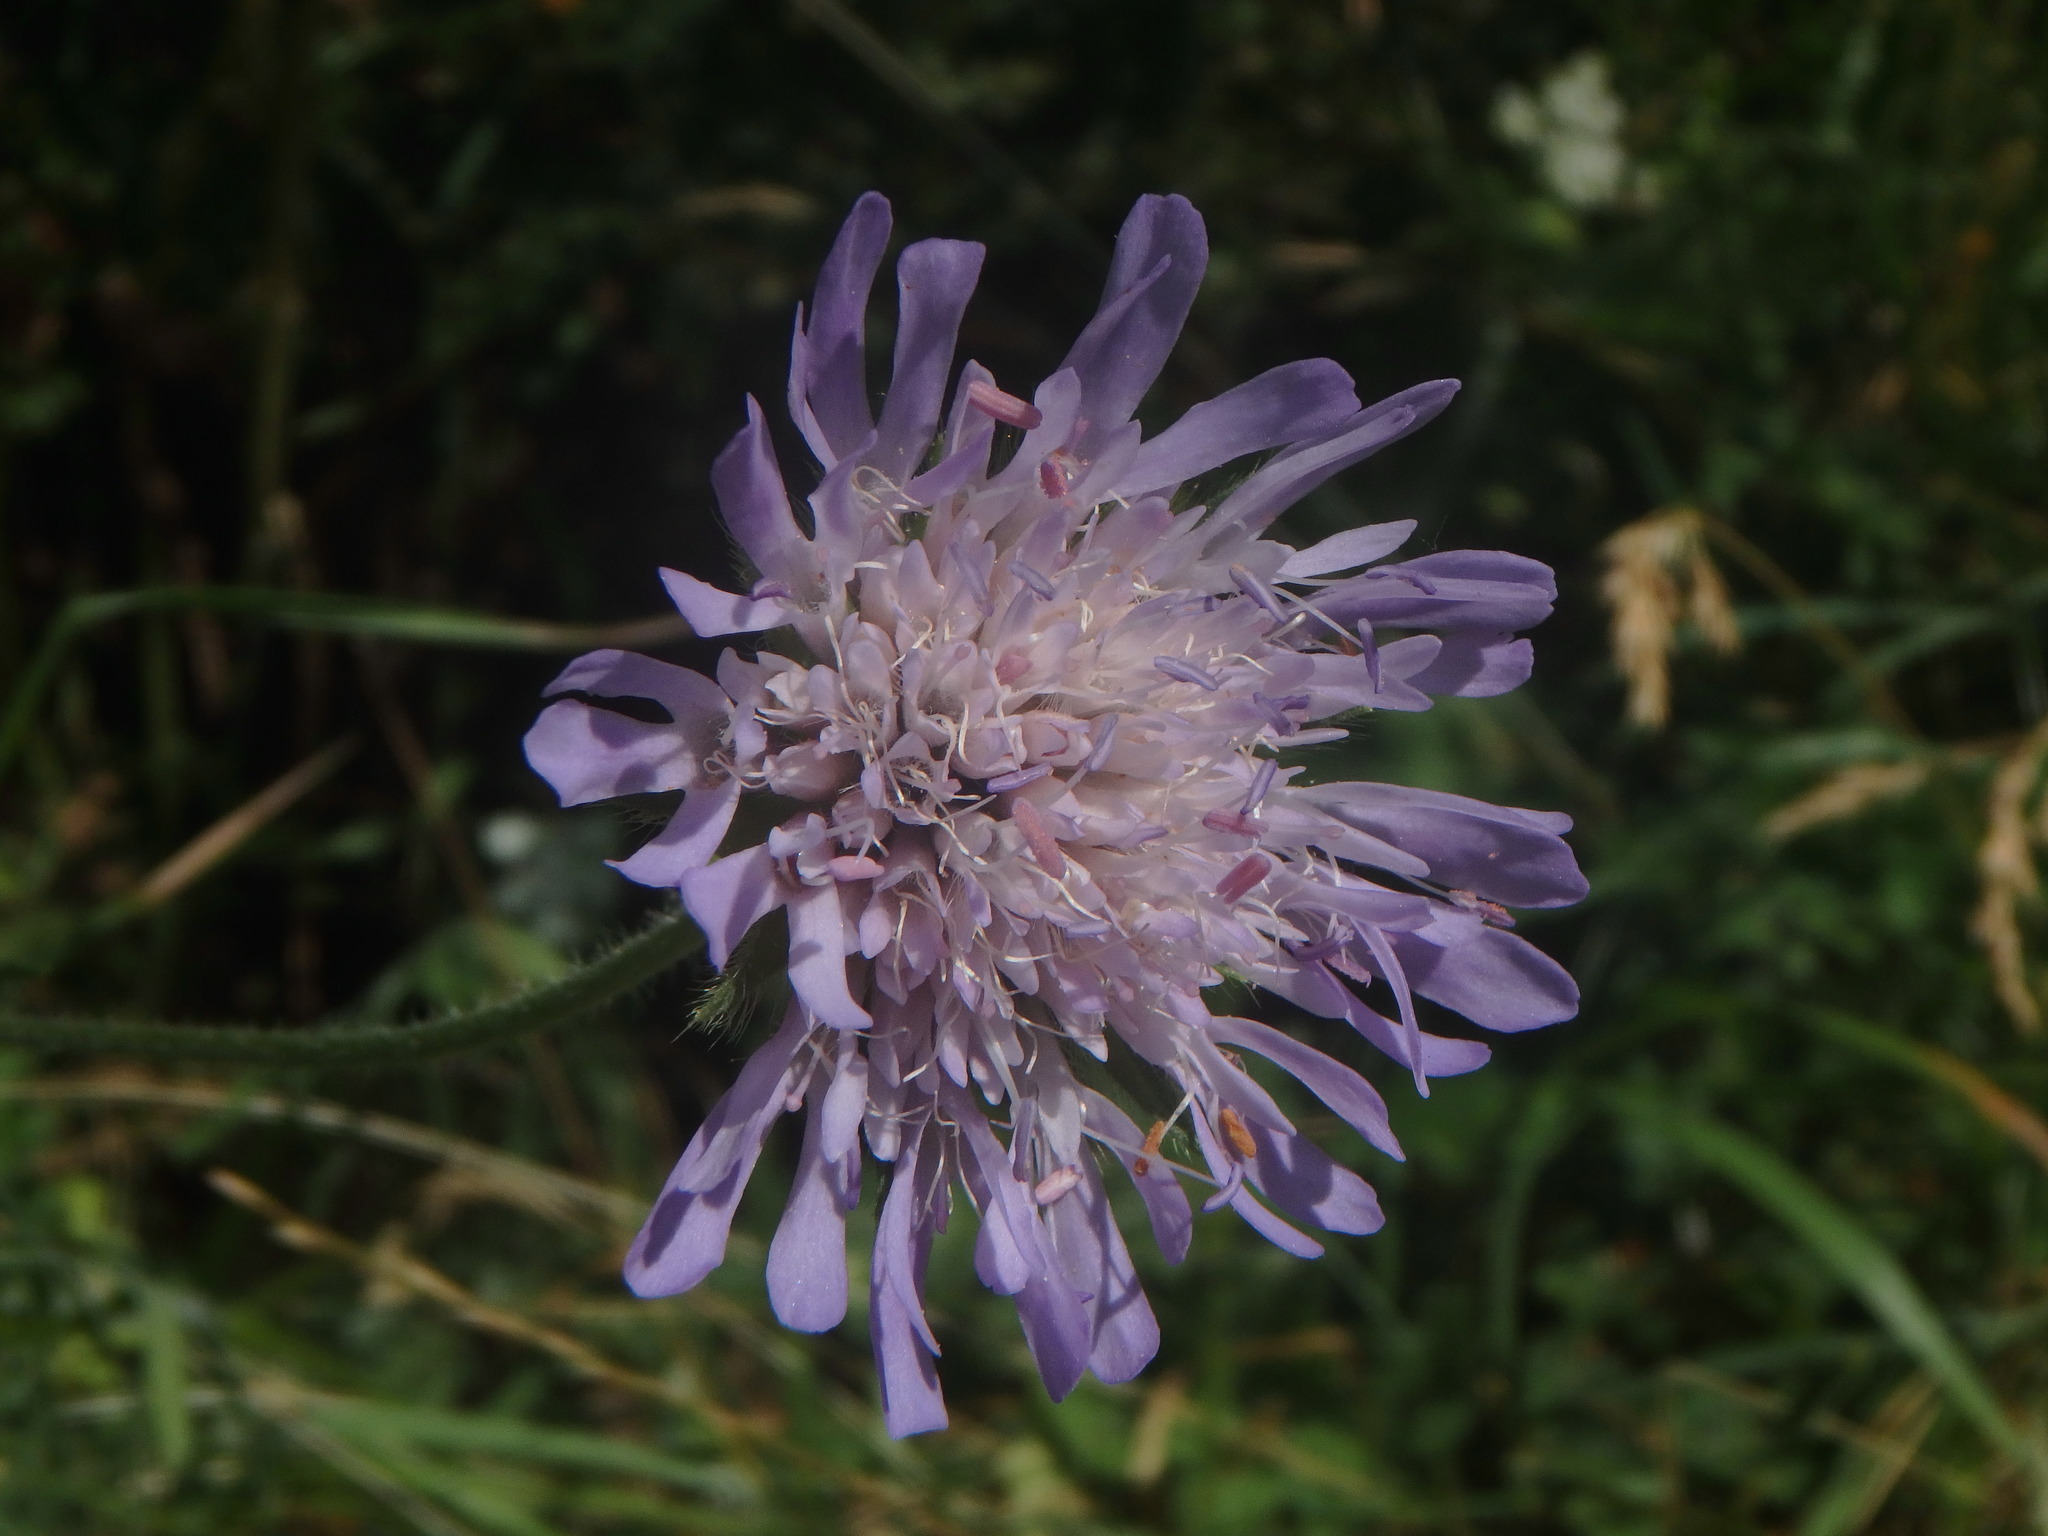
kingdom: Plantae
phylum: Tracheophyta
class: Magnoliopsida
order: Dipsacales
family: Caprifoliaceae
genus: Knautia
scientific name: Knautia arvensis
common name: Field scabiosa
